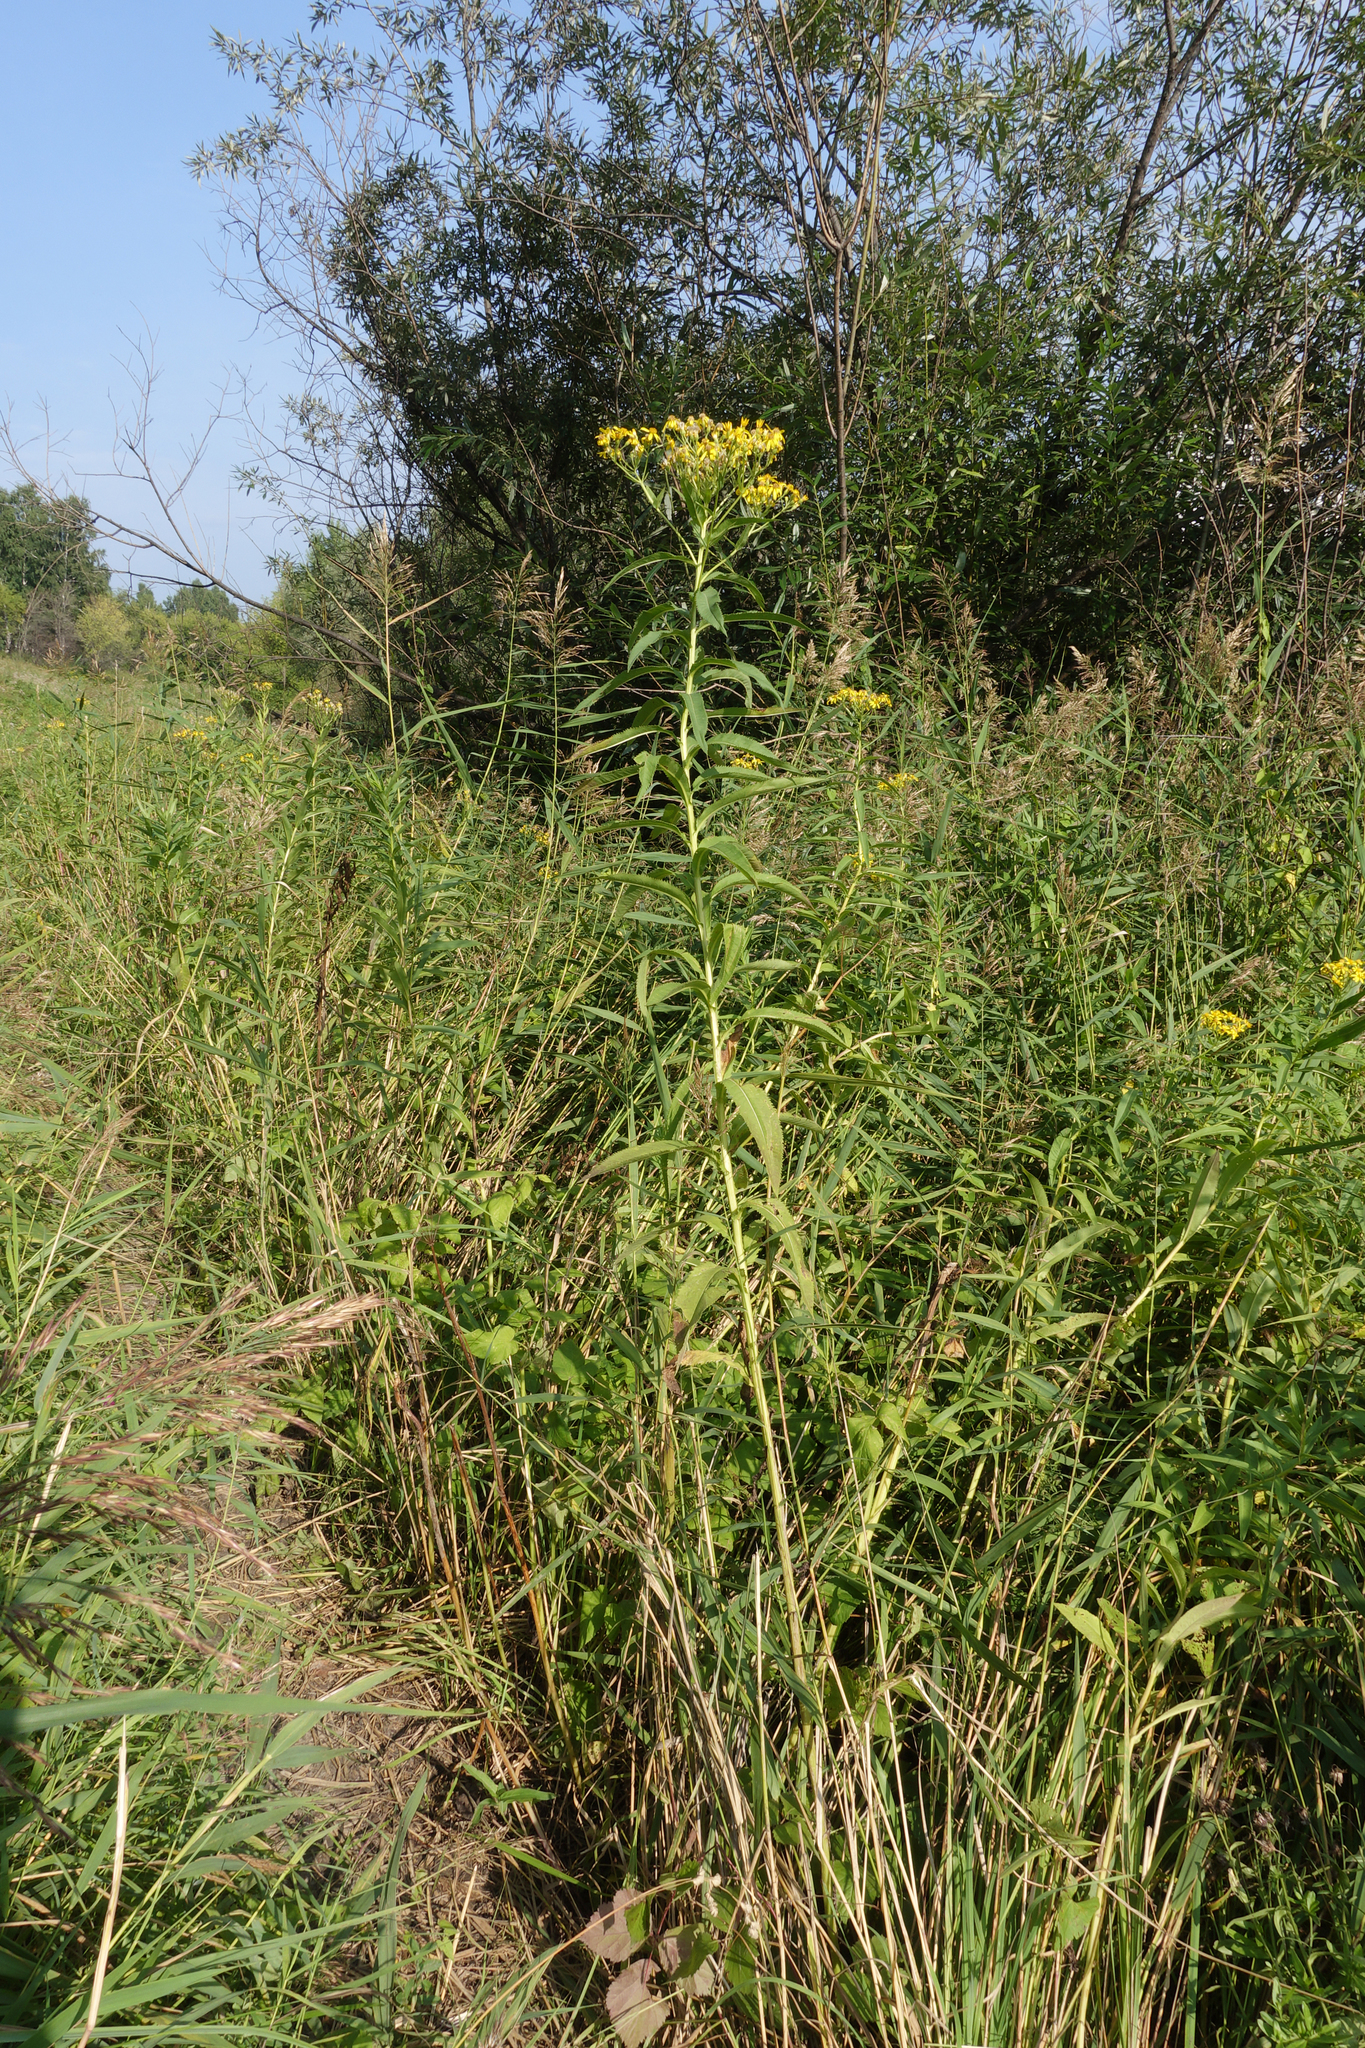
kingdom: Plantae
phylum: Tracheophyta
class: Magnoliopsida
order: Asterales
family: Asteraceae
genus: Senecio
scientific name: Senecio sarracenicus
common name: Broad-leaved ragwort
